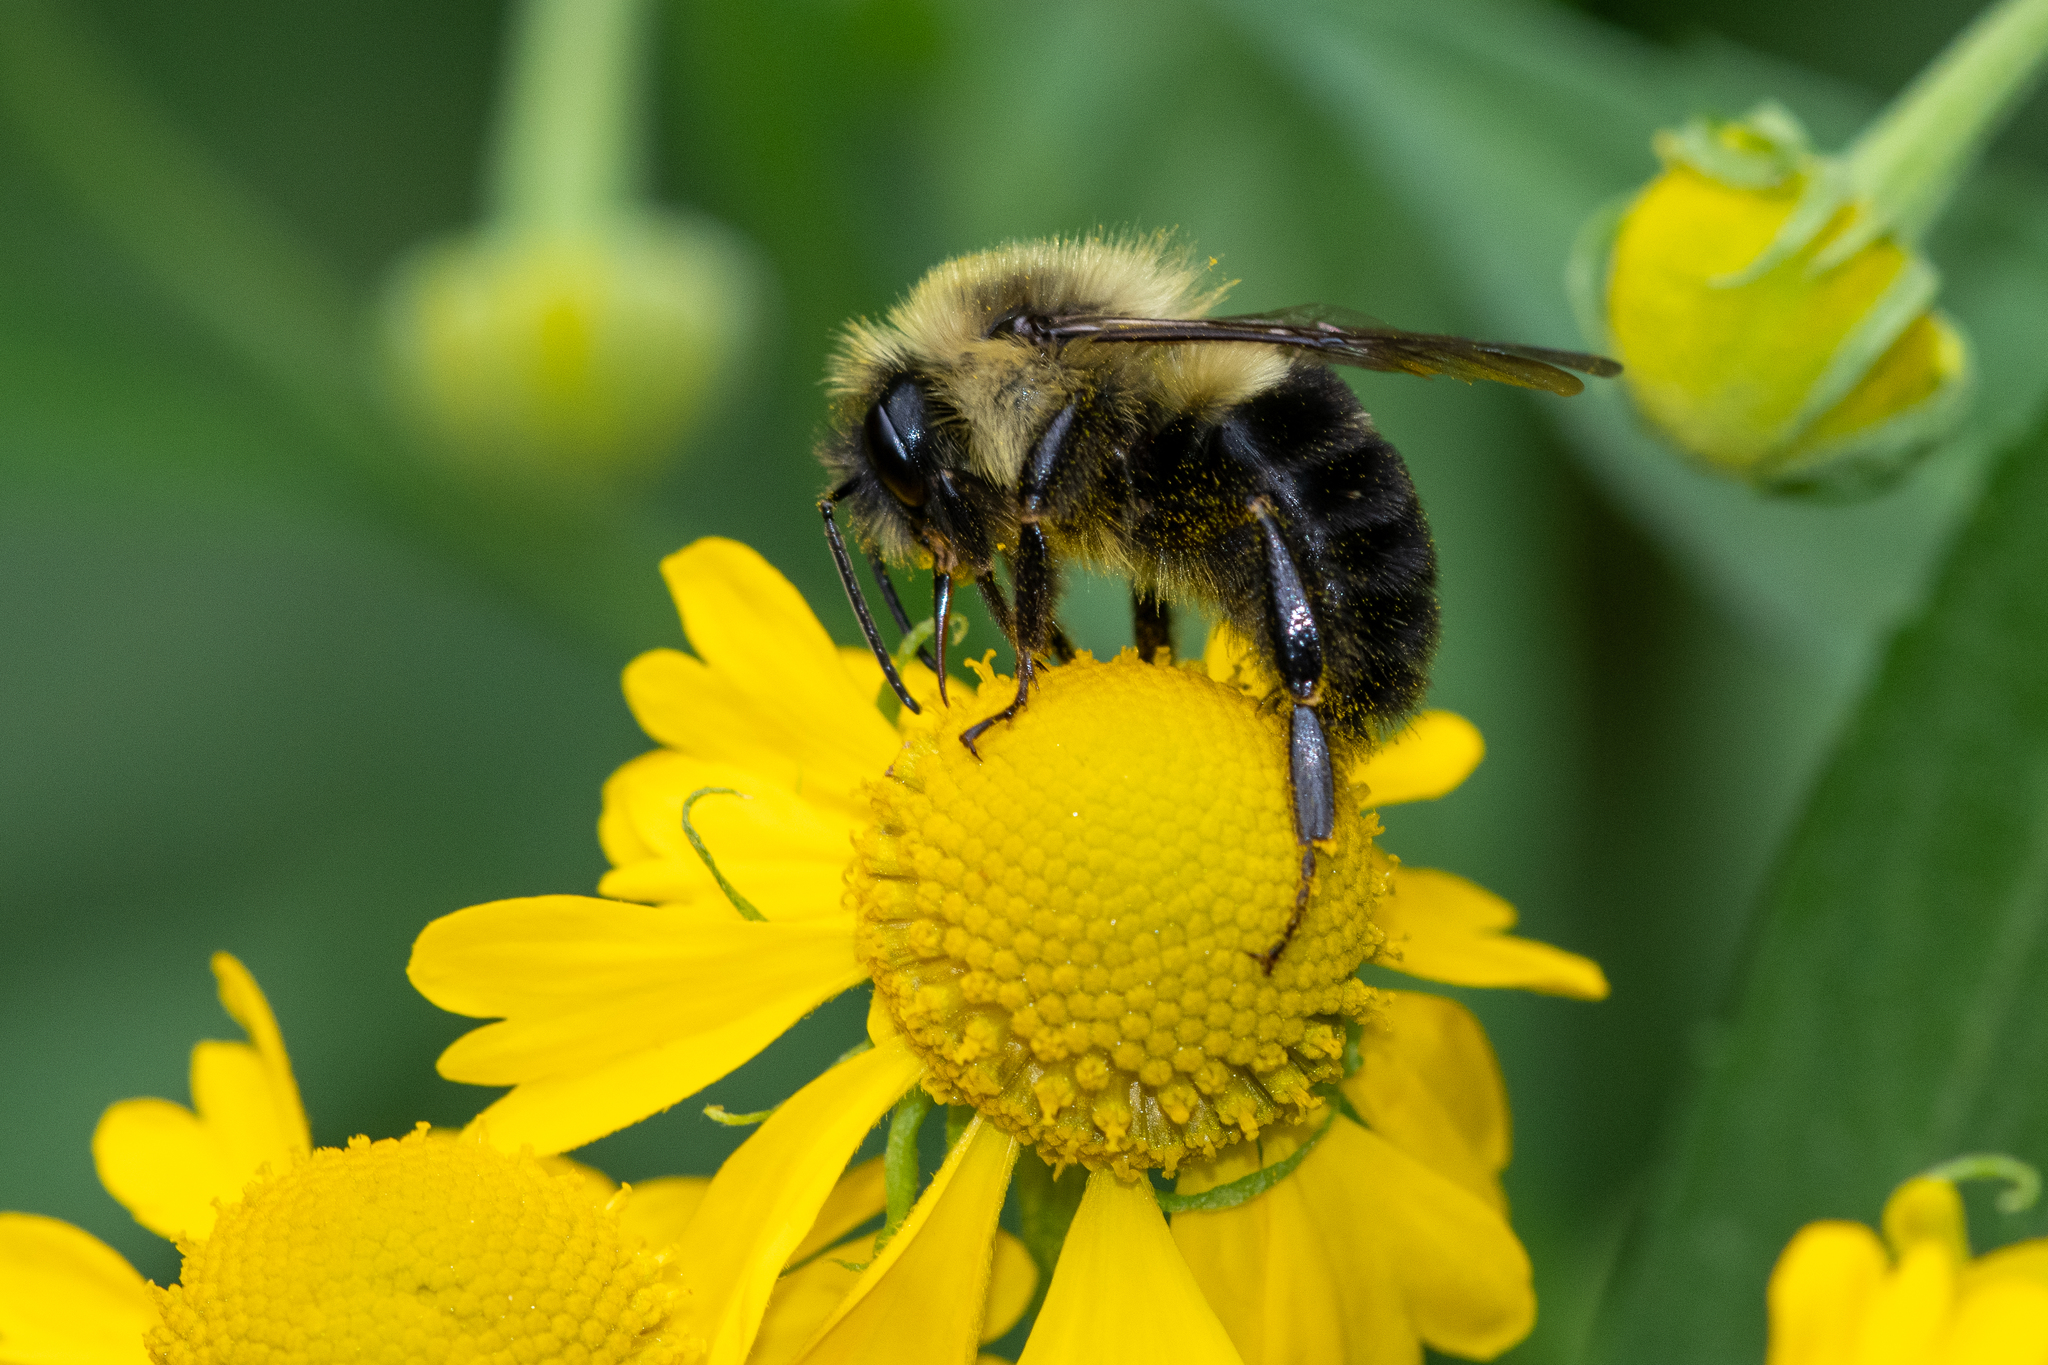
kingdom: Animalia
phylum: Arthropoda
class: Insecta
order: Hymenoptera
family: Apidae
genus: Bombus
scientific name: Bombus impatiens
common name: Common eastern bumble bee
